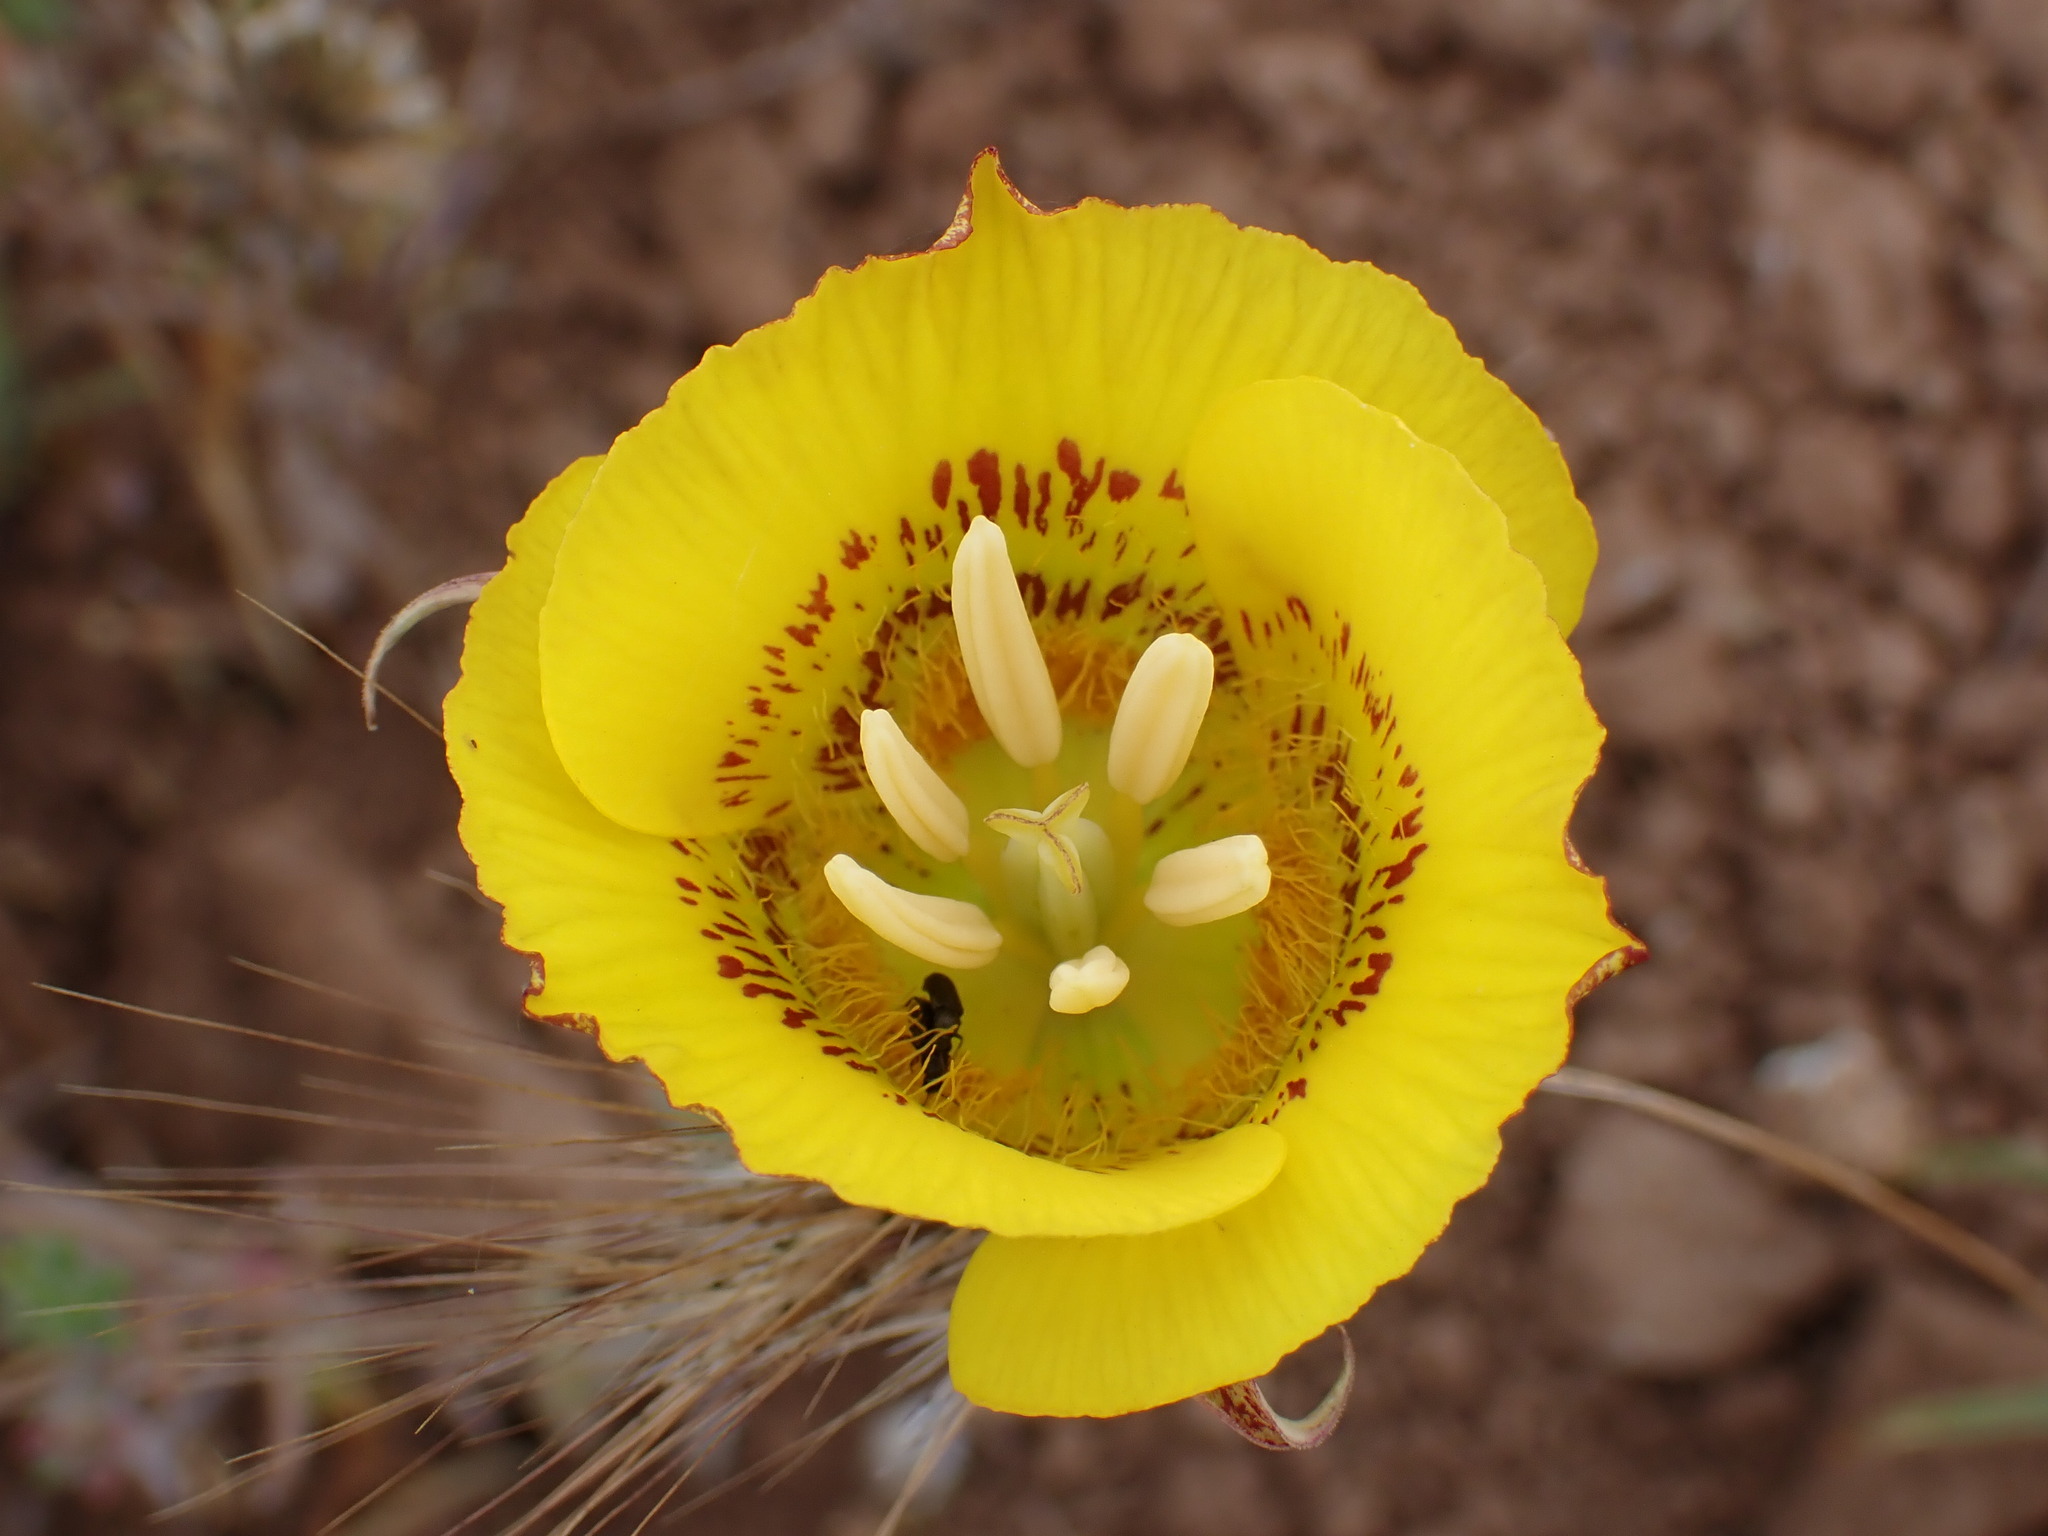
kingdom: Plantae
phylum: Tracheophyta
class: Liliopsida
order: Liliales
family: Liliaceae
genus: Calochortus
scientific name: Calochortus luteus
